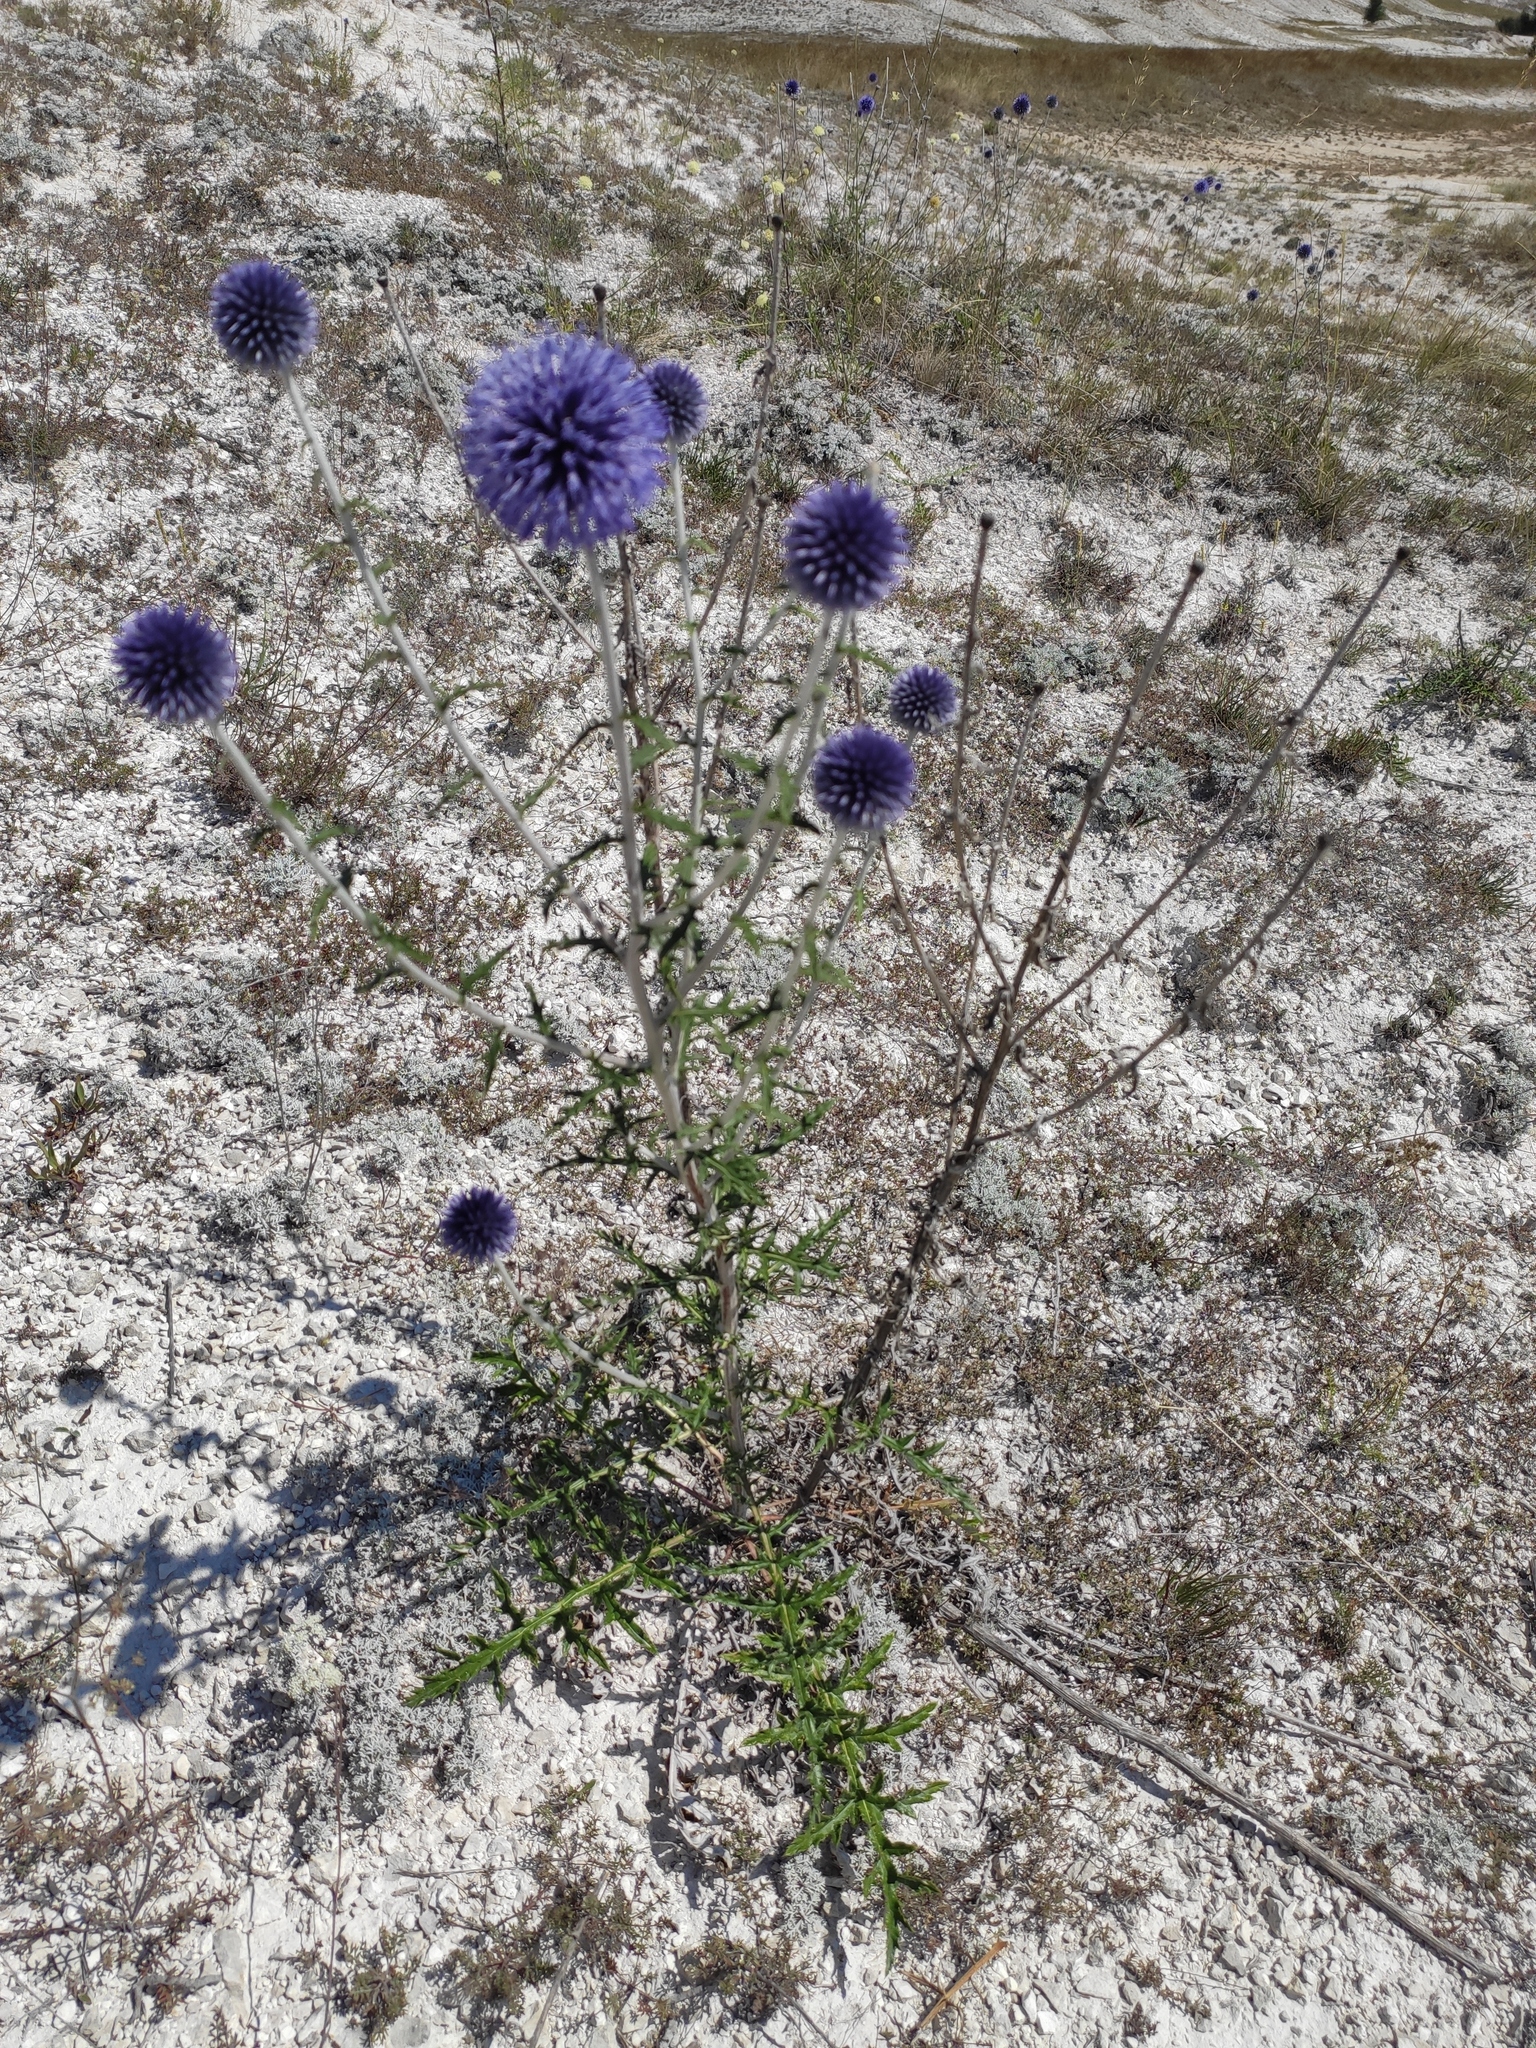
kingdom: Plantae
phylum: Tracheophyta
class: Magnoliopsida
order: Asterales
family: Asteraceae
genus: Echinops
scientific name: Echinops ritro
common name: Globe thistle
